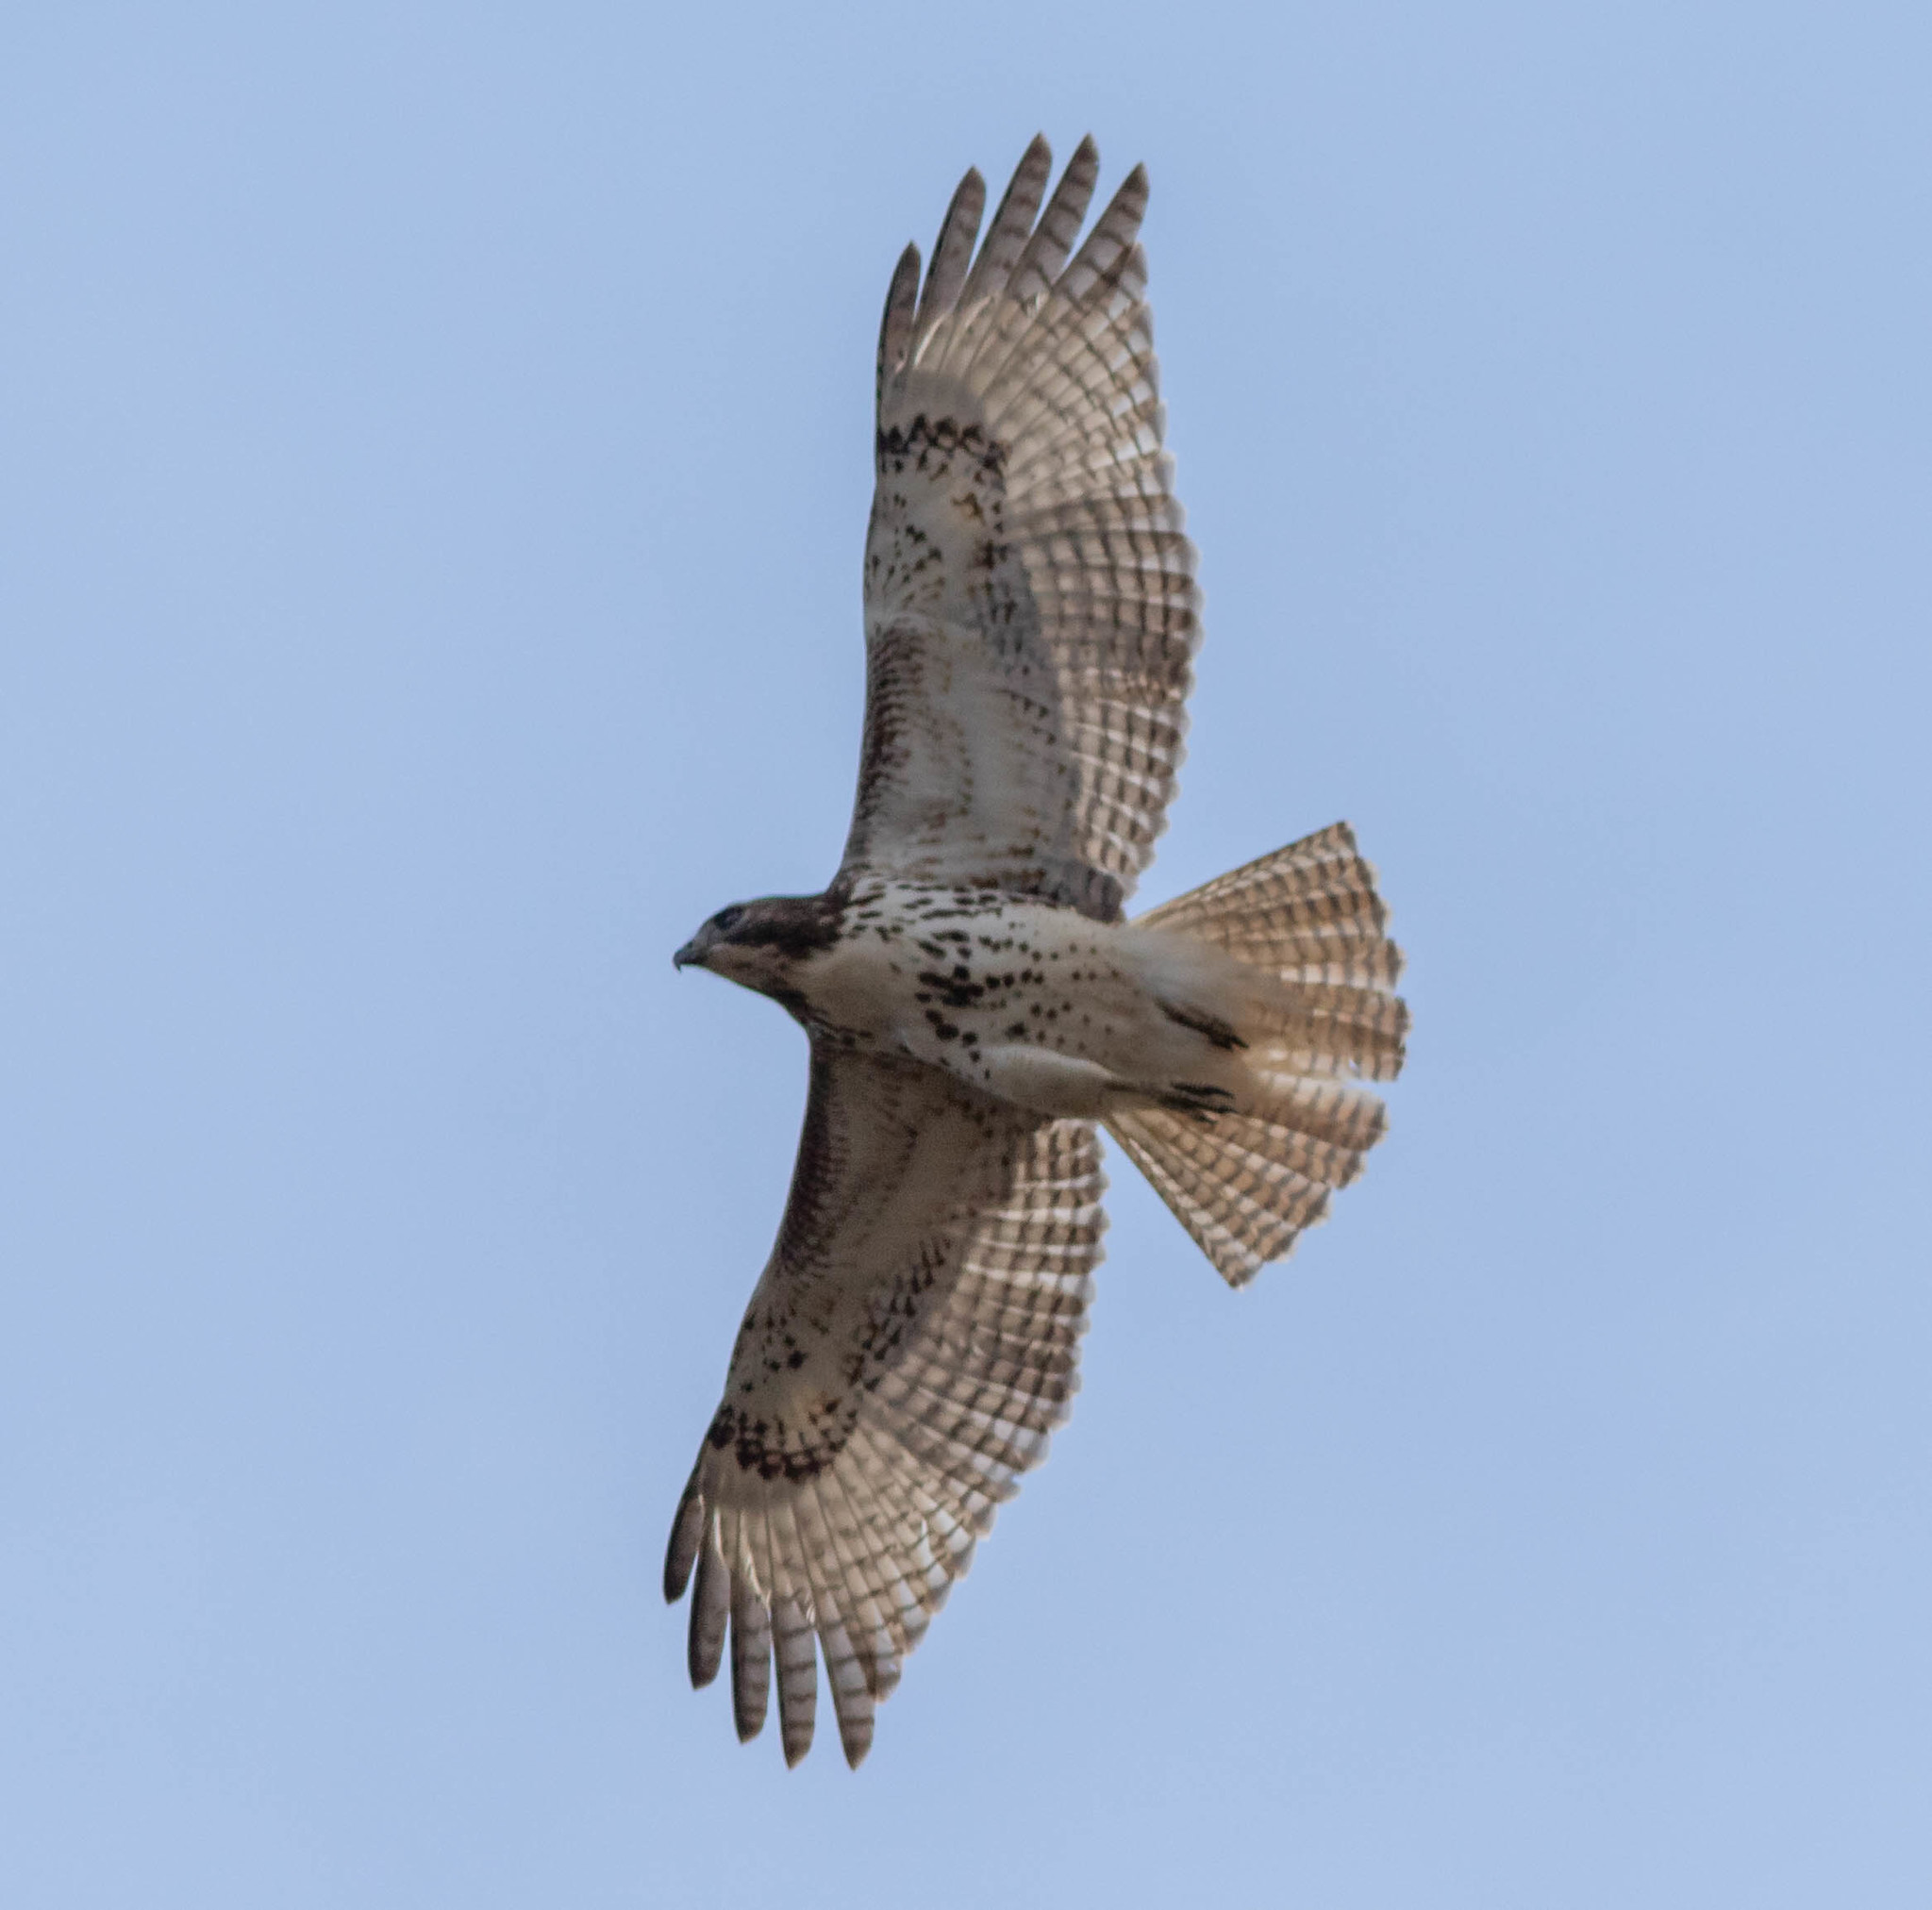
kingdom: Animalia
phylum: Chordata
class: Aves
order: Accipitriformes
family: Accipitridae
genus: Buteo
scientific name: Buteo jamaicensis
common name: Red-tailed hawk
